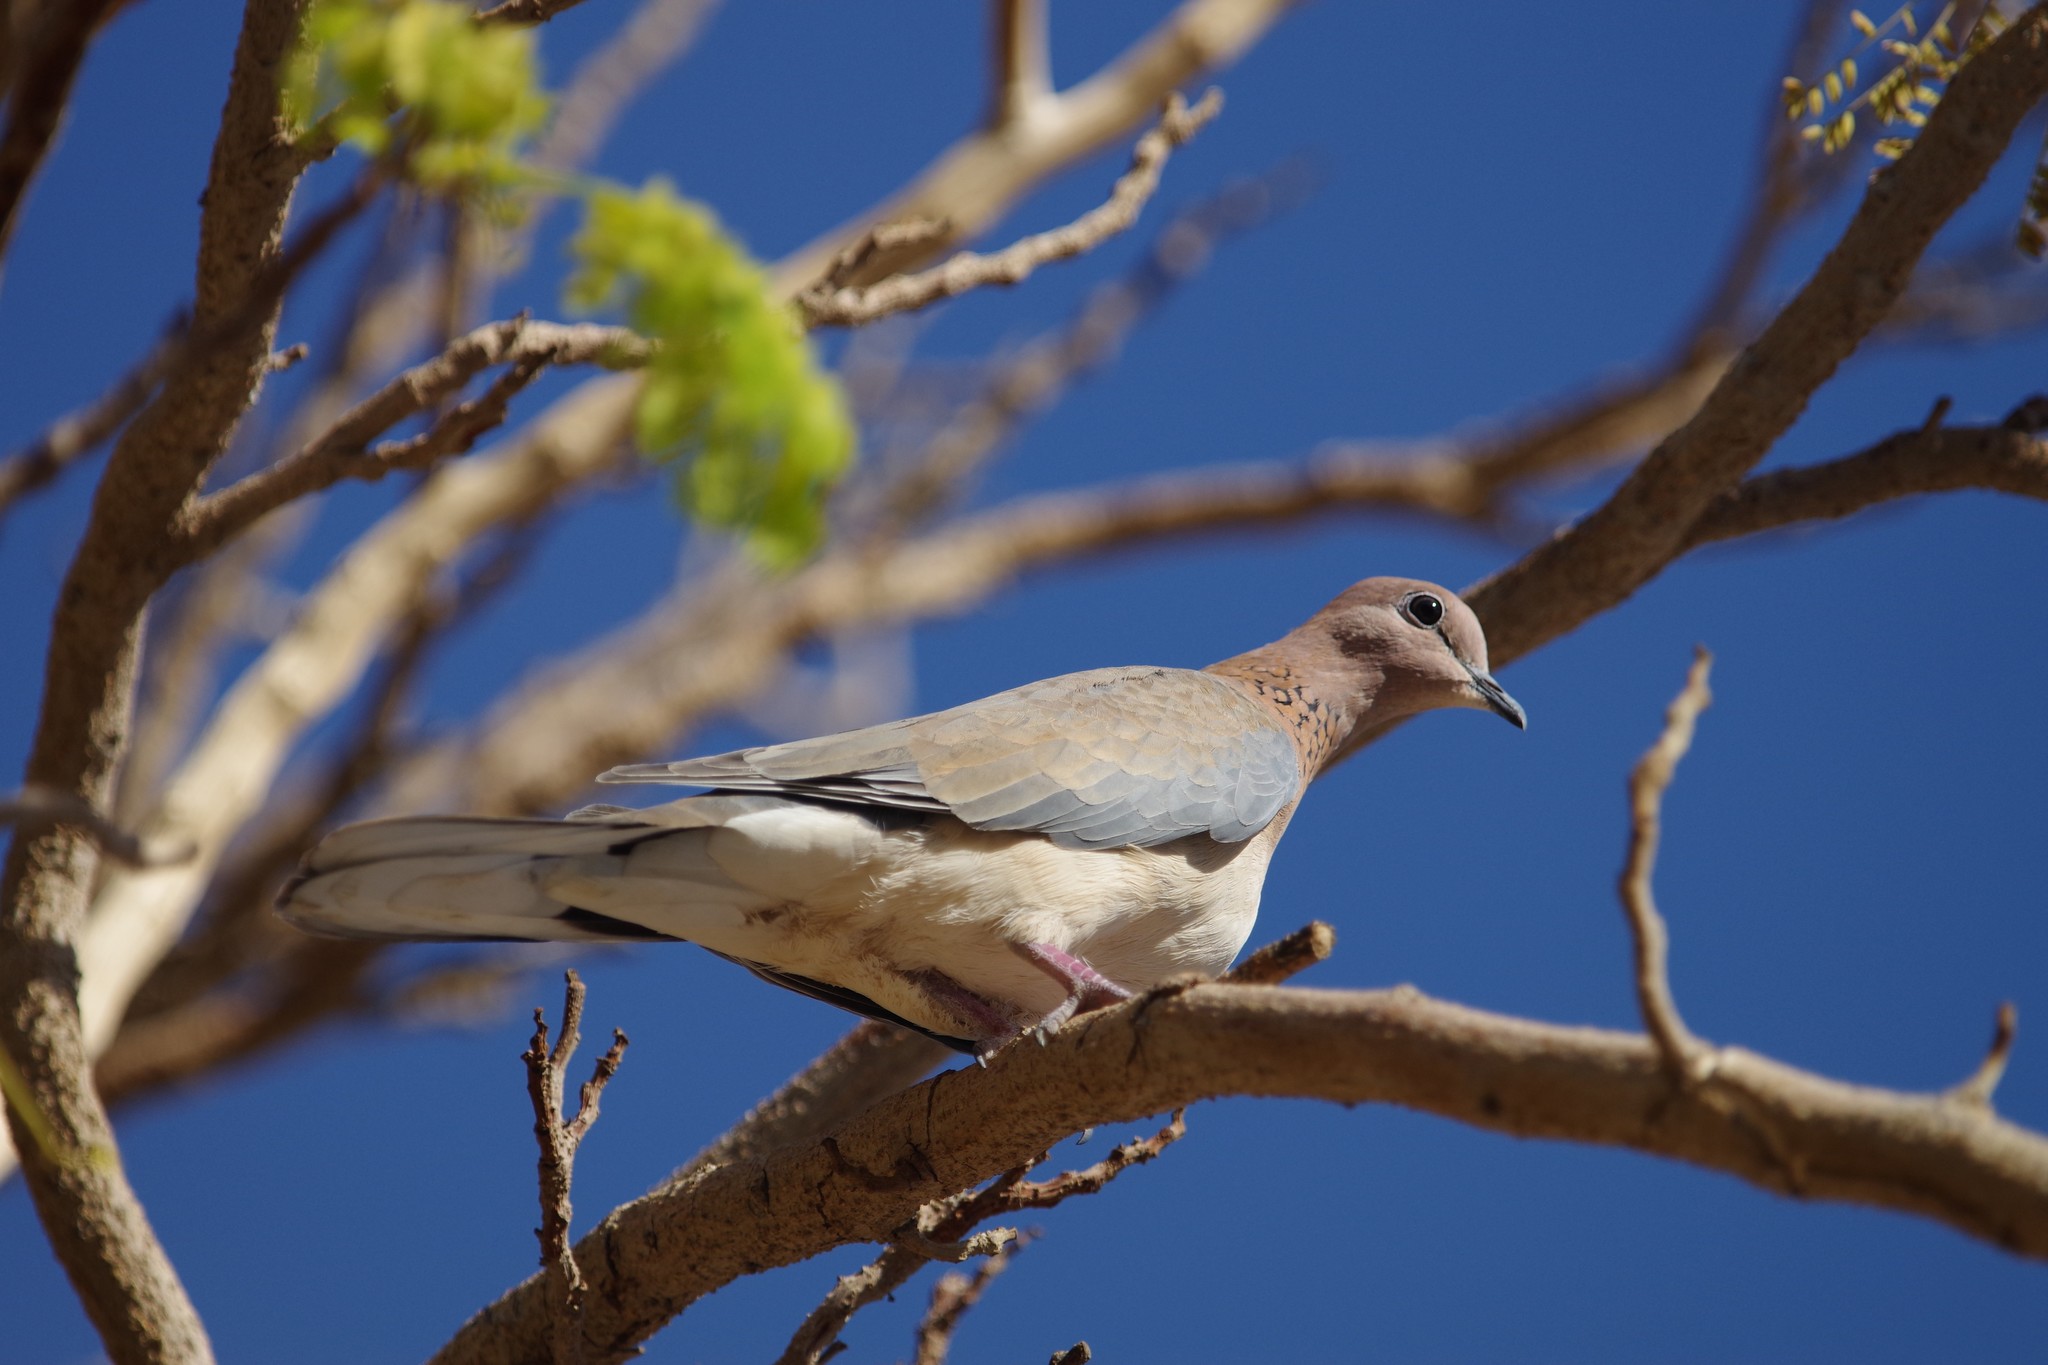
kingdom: Animalia
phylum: Chordata
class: Aves
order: Columbiformes
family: Columbidae
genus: Spilopelia
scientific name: Spilopelia senegalensis
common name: Laughing dove
